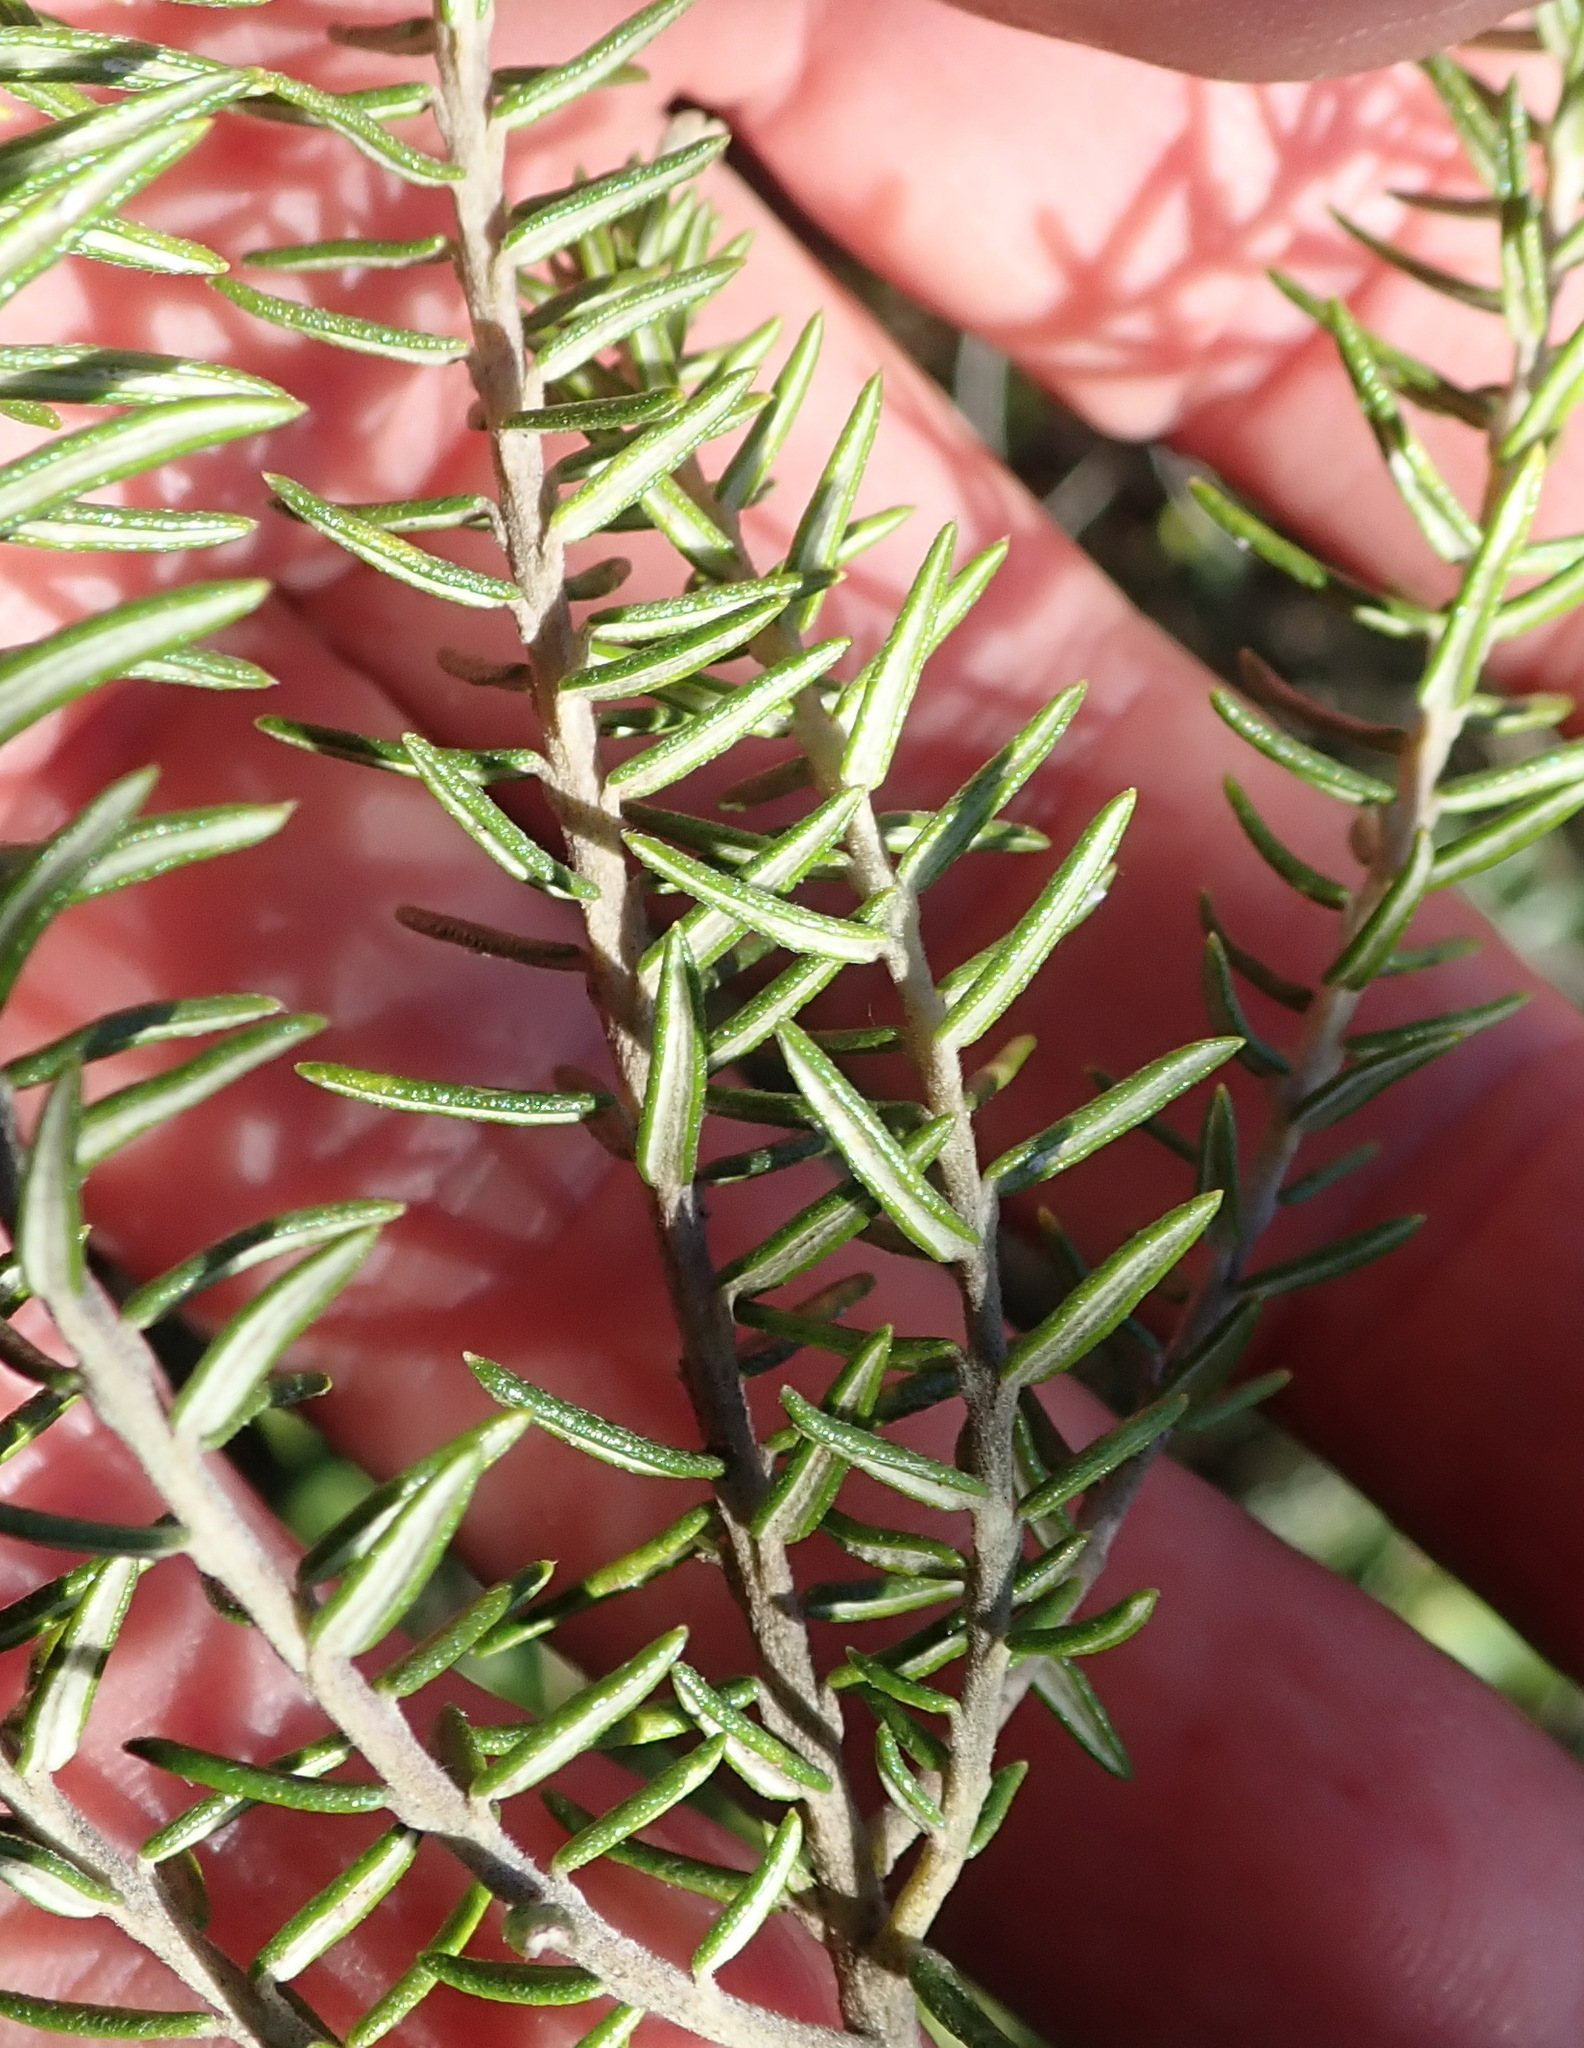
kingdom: Plantae
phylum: Tracheophyta
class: Magnoliopsida
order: Rosales
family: Rhamnaceae
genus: Phylica
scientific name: Phylica axillaris
